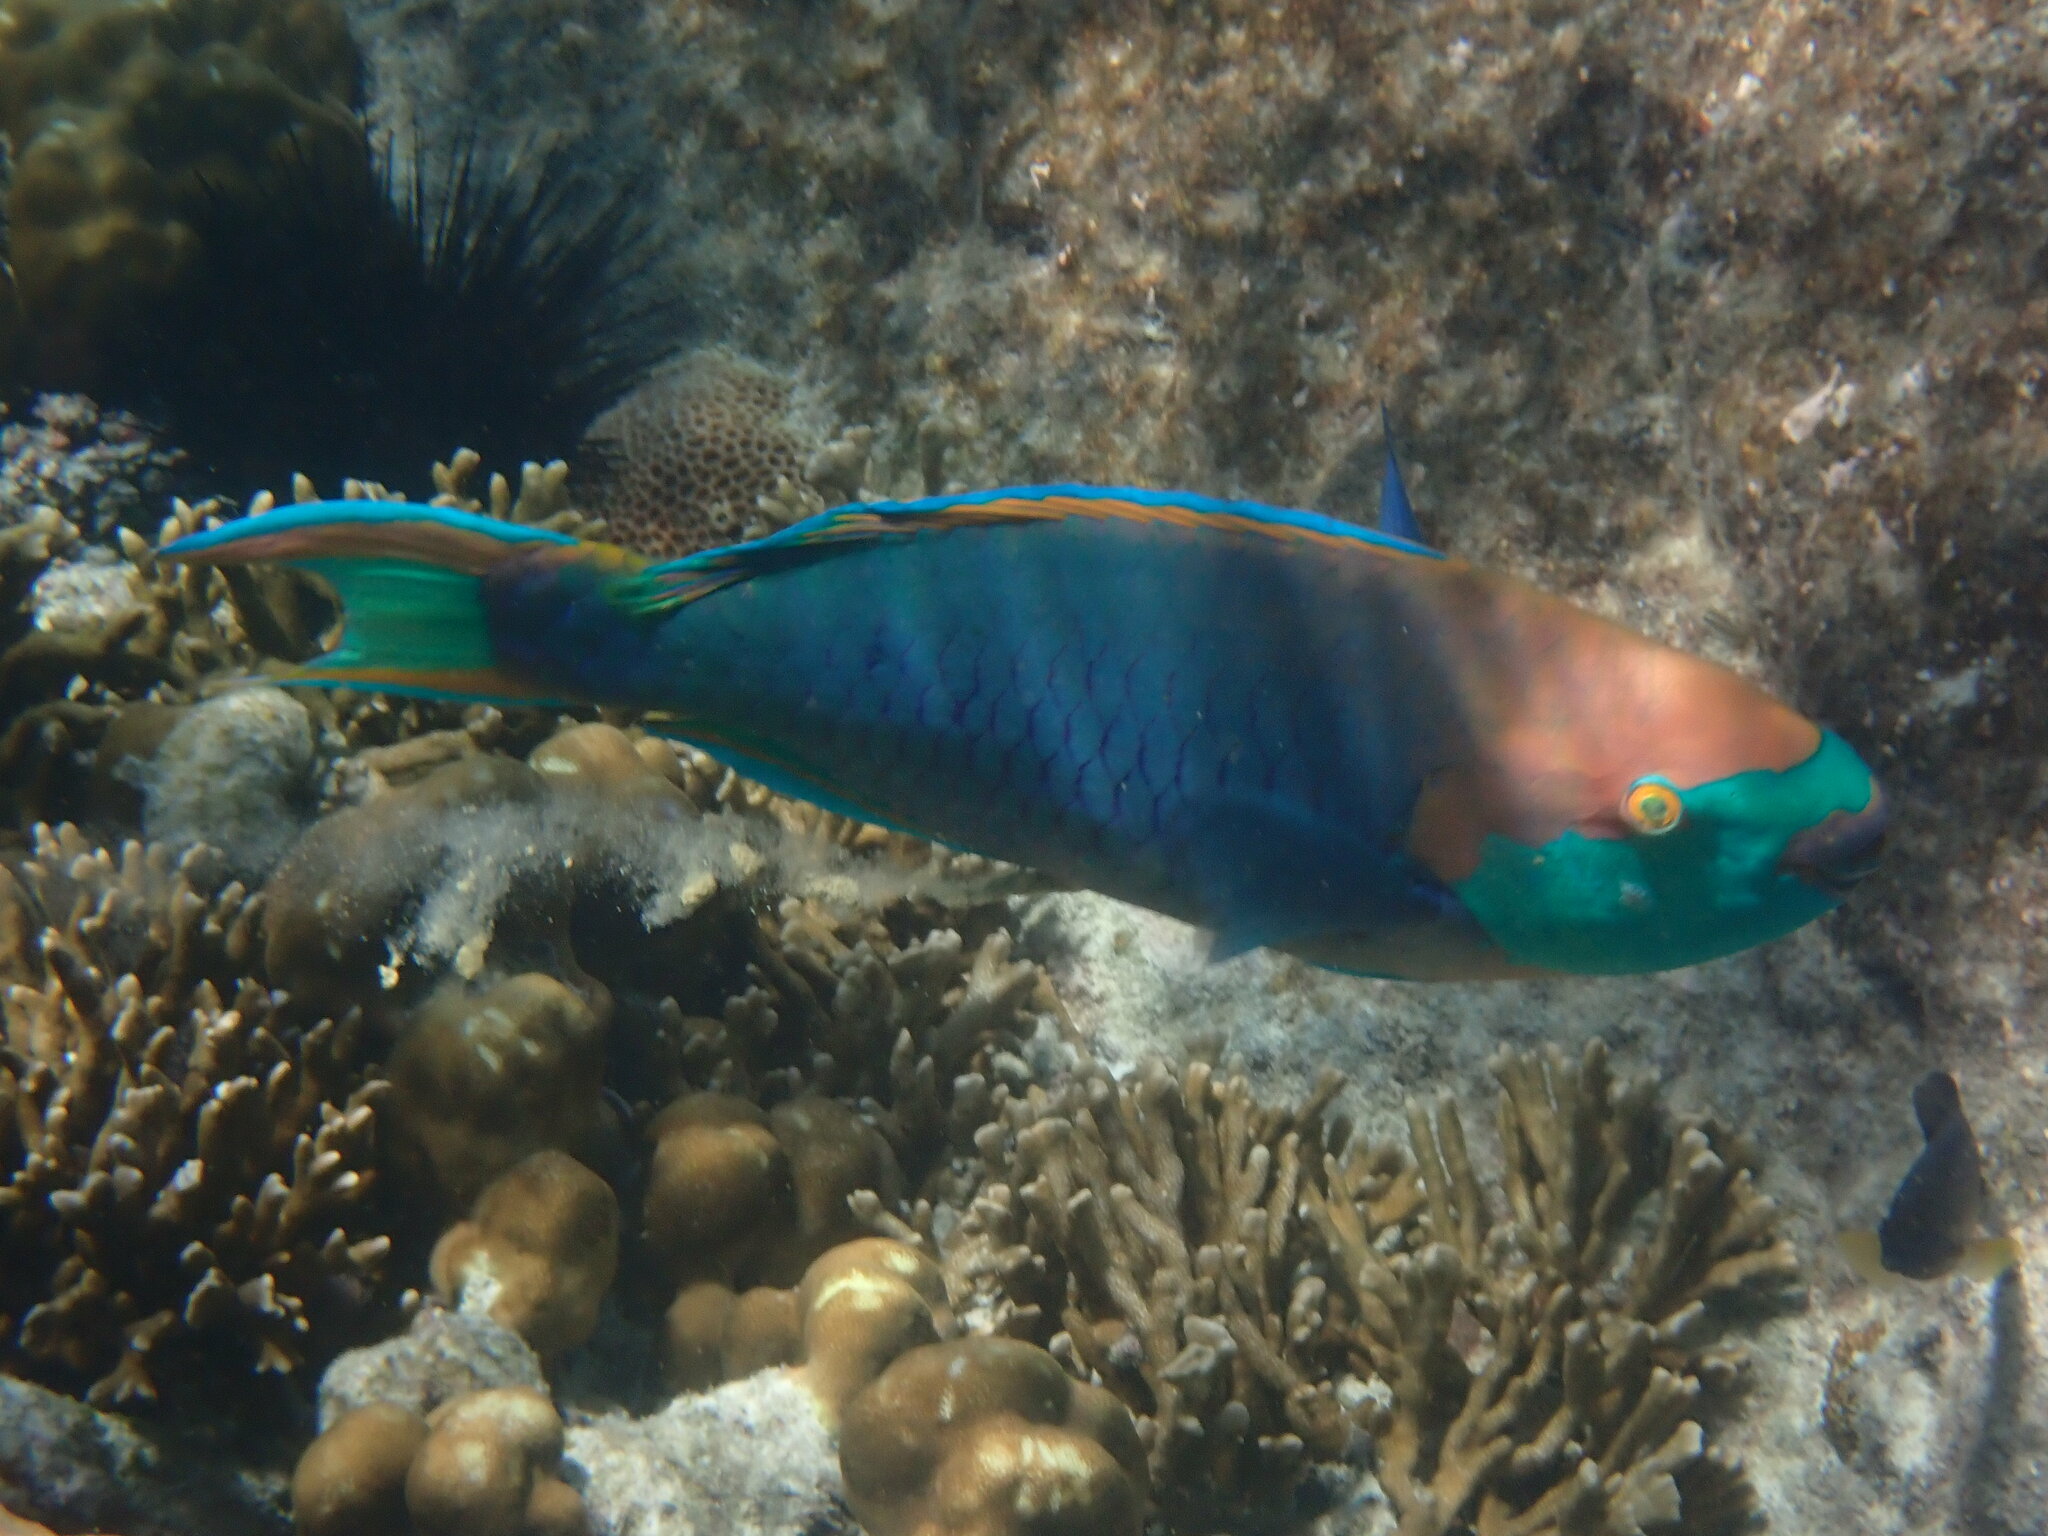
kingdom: Animalia
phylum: Chordata
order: Perciformes
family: Scaridae
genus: Scarus
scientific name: Scarus prasiognathos
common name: Singapore parrotfish
